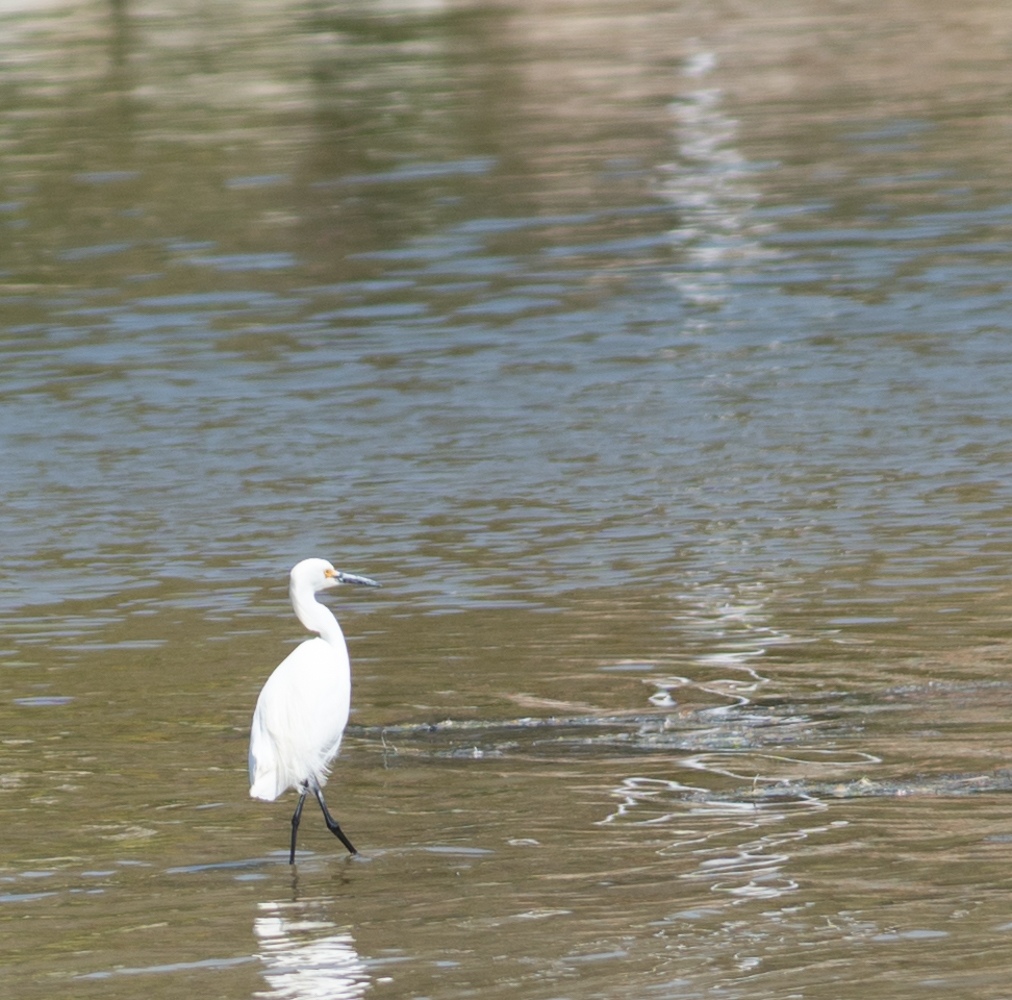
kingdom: Animalia
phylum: Chordata
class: Aves
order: Pelecaniformes
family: Ardeidae
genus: Egretta
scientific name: Egretta thula
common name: Snowy egret
